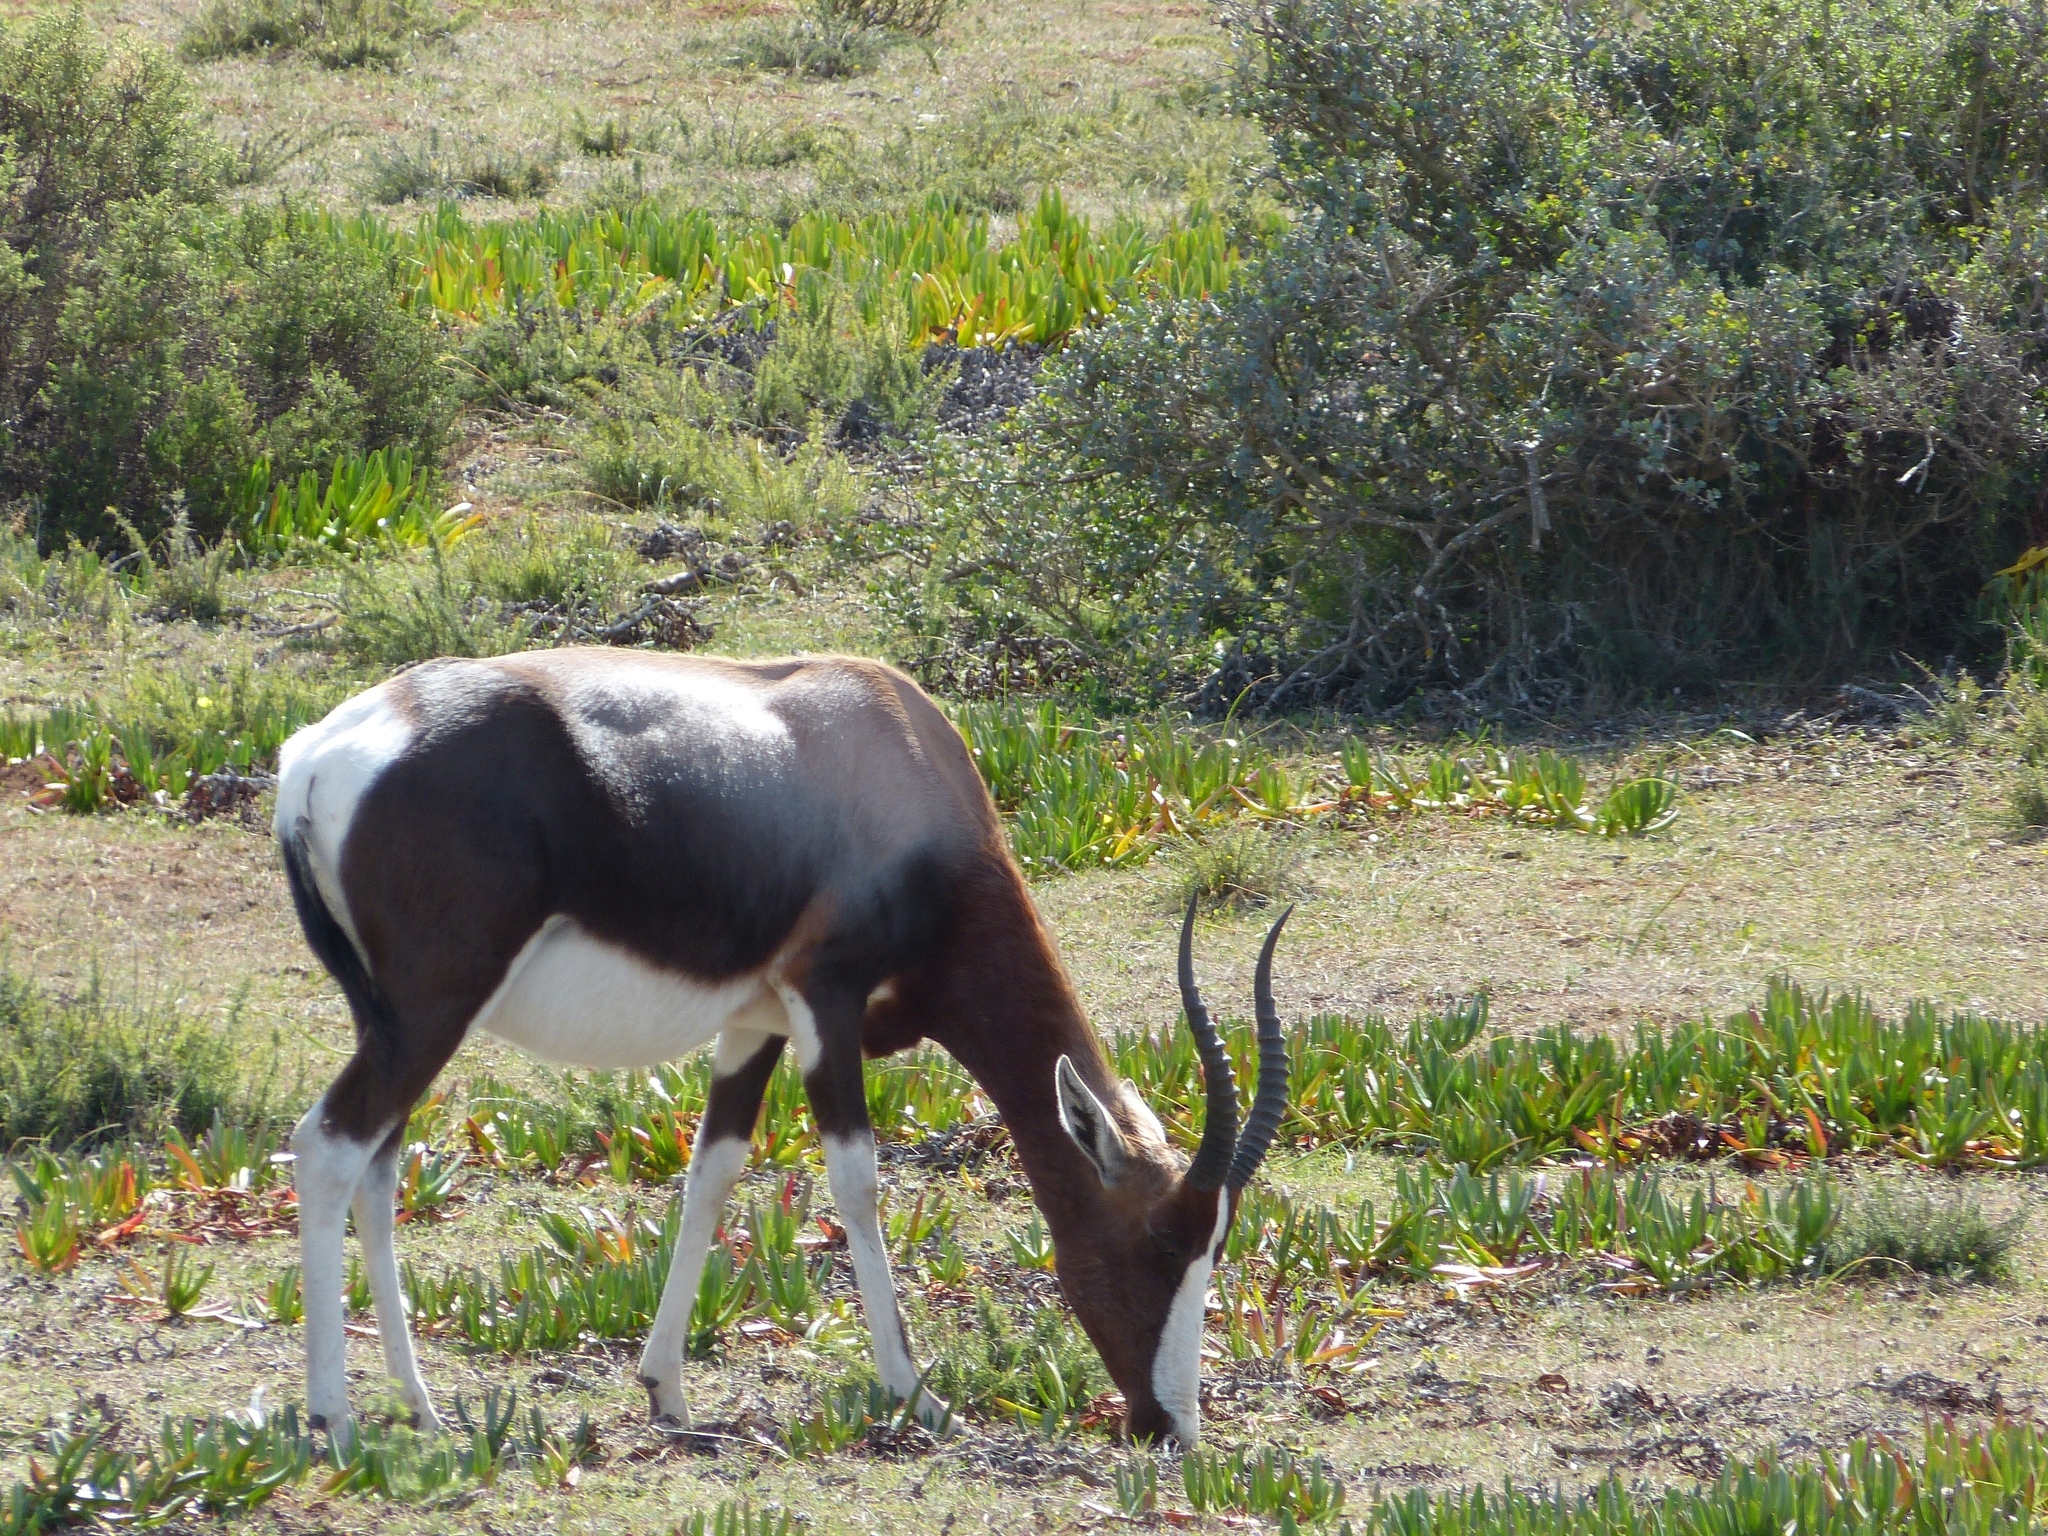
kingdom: Animalia
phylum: Chordata
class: Mammalia
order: Artiodactyla
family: Bovidae
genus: Damaliscus
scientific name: Damaliscus pygargus
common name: Bontebok
